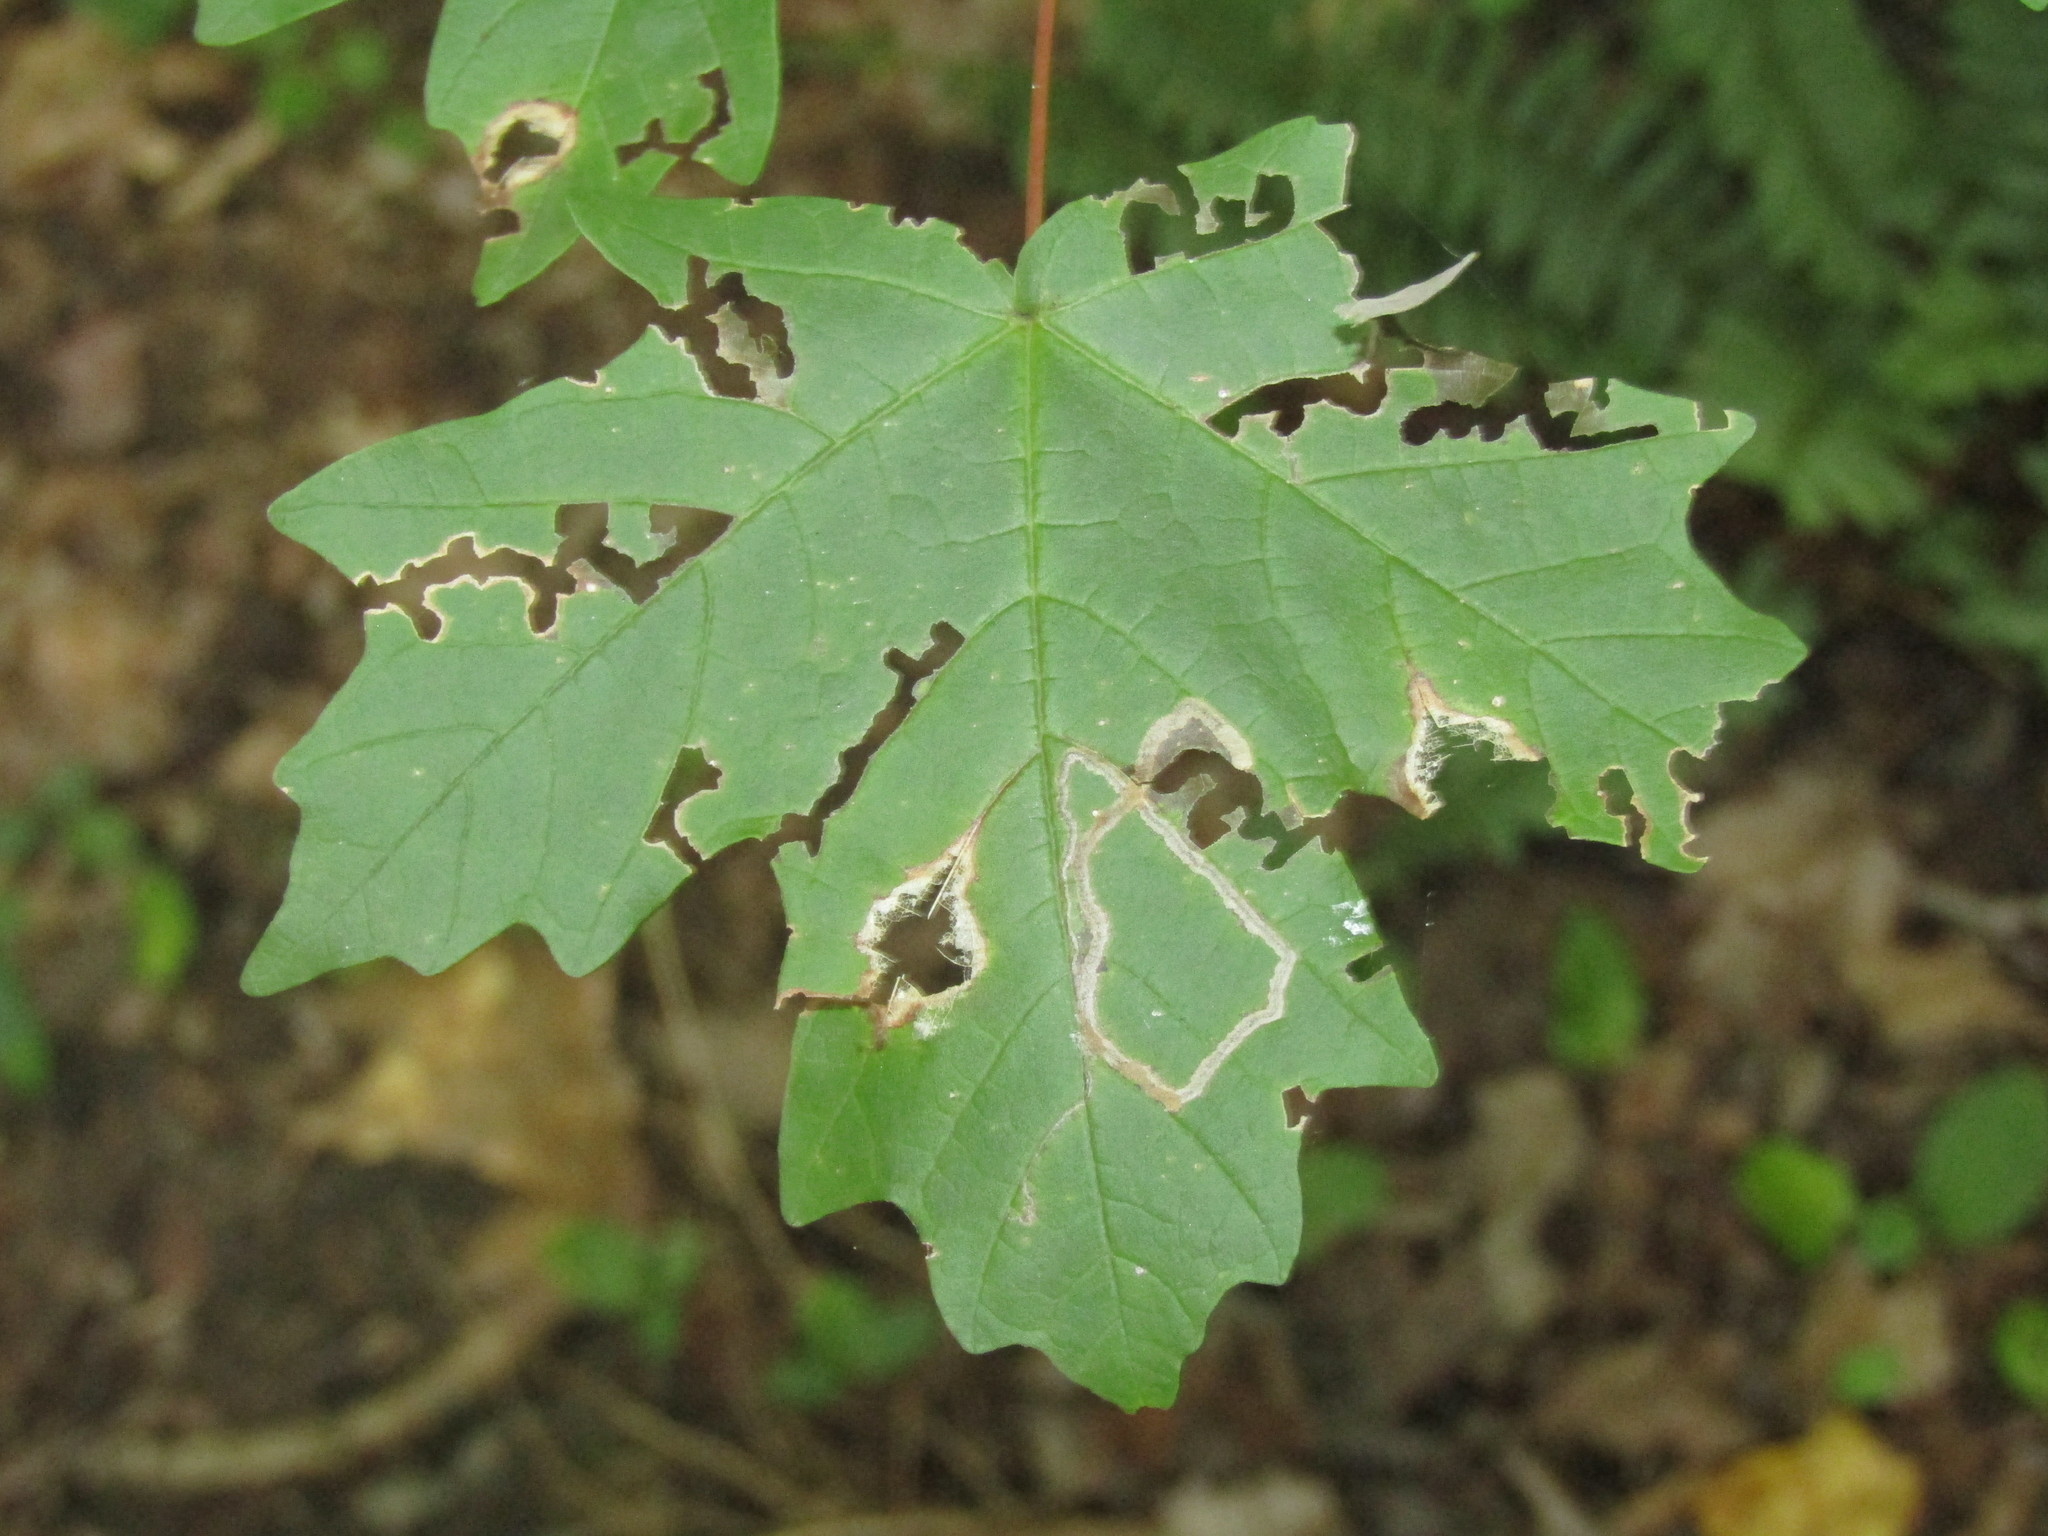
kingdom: Animalia
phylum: Arthropoda
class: Insecta
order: Lepidoptera
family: Nepticulidae
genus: Glaucolepis
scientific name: Glaucolepis saccharella
